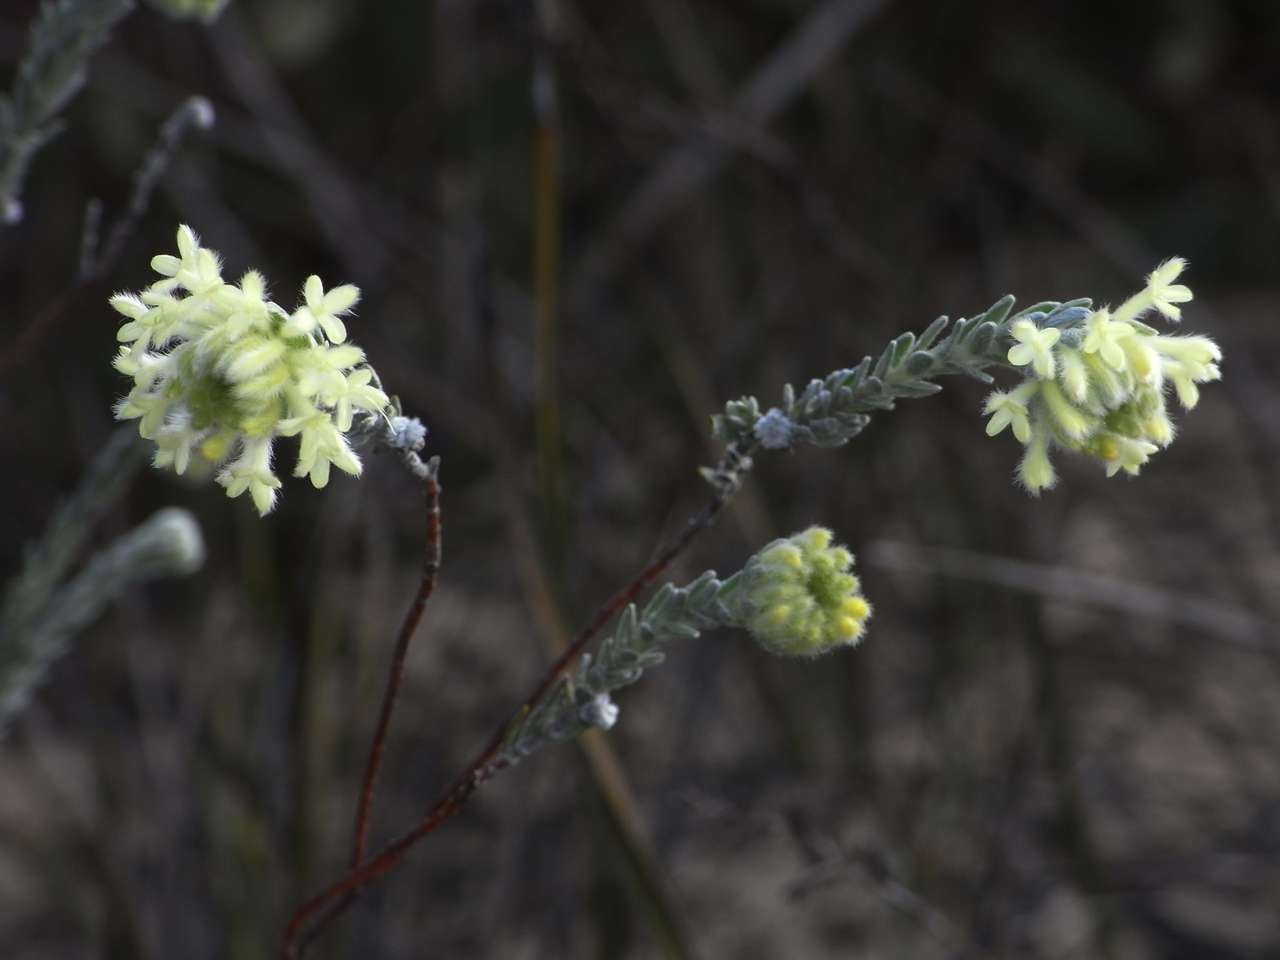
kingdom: Plantae
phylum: Tracheophyta
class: Magnoliopsida
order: Malvales
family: Thymelaeaceae
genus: Pimelea
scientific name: Pimelea octophylla
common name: Woolly riceflower
